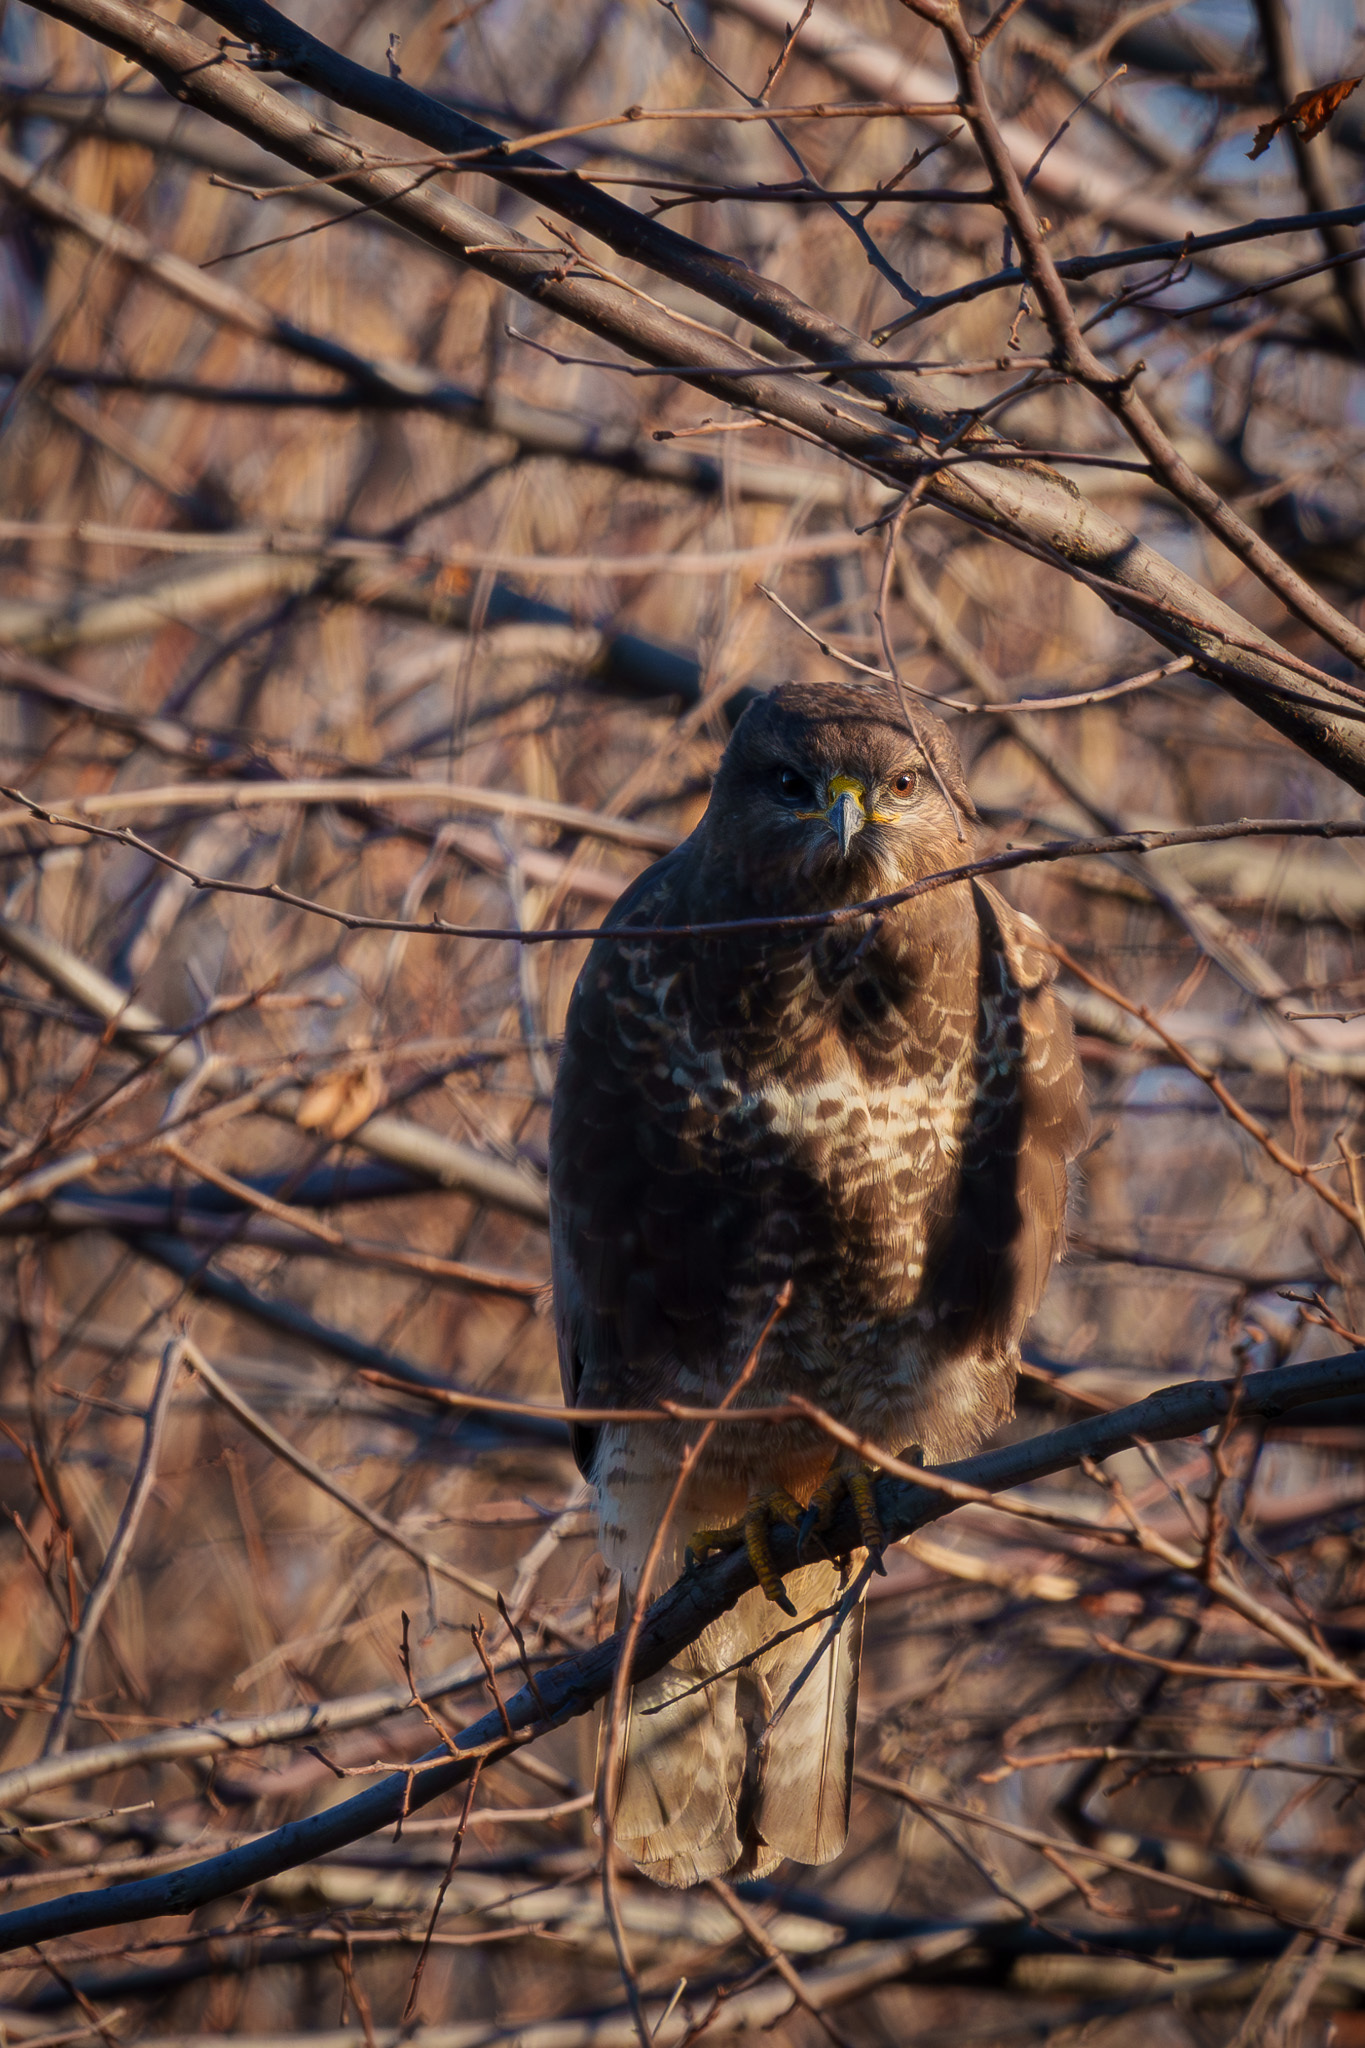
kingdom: Animalia
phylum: Chordata
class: Aves
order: Accipitriformes
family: Accipitridae
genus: Buteo
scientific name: Buteo buteo
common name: Common buzzard
